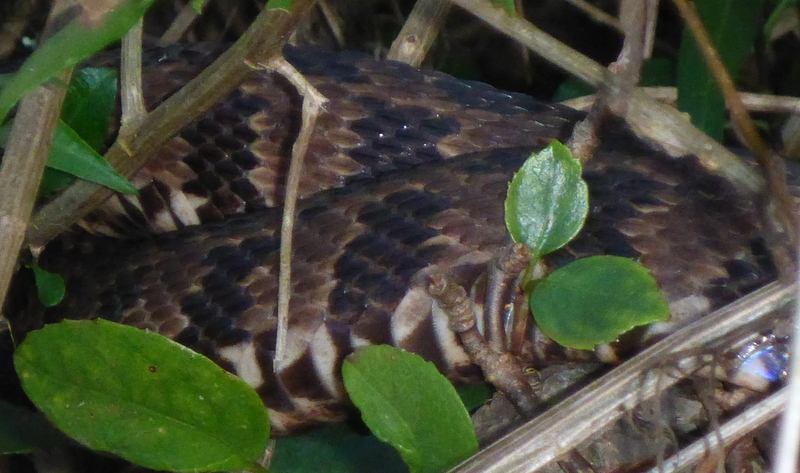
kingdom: Animalia
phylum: Chordata
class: Squamata
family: Colubridae
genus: Nerodia
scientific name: Nerodia taxispilota
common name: Brown water snake
